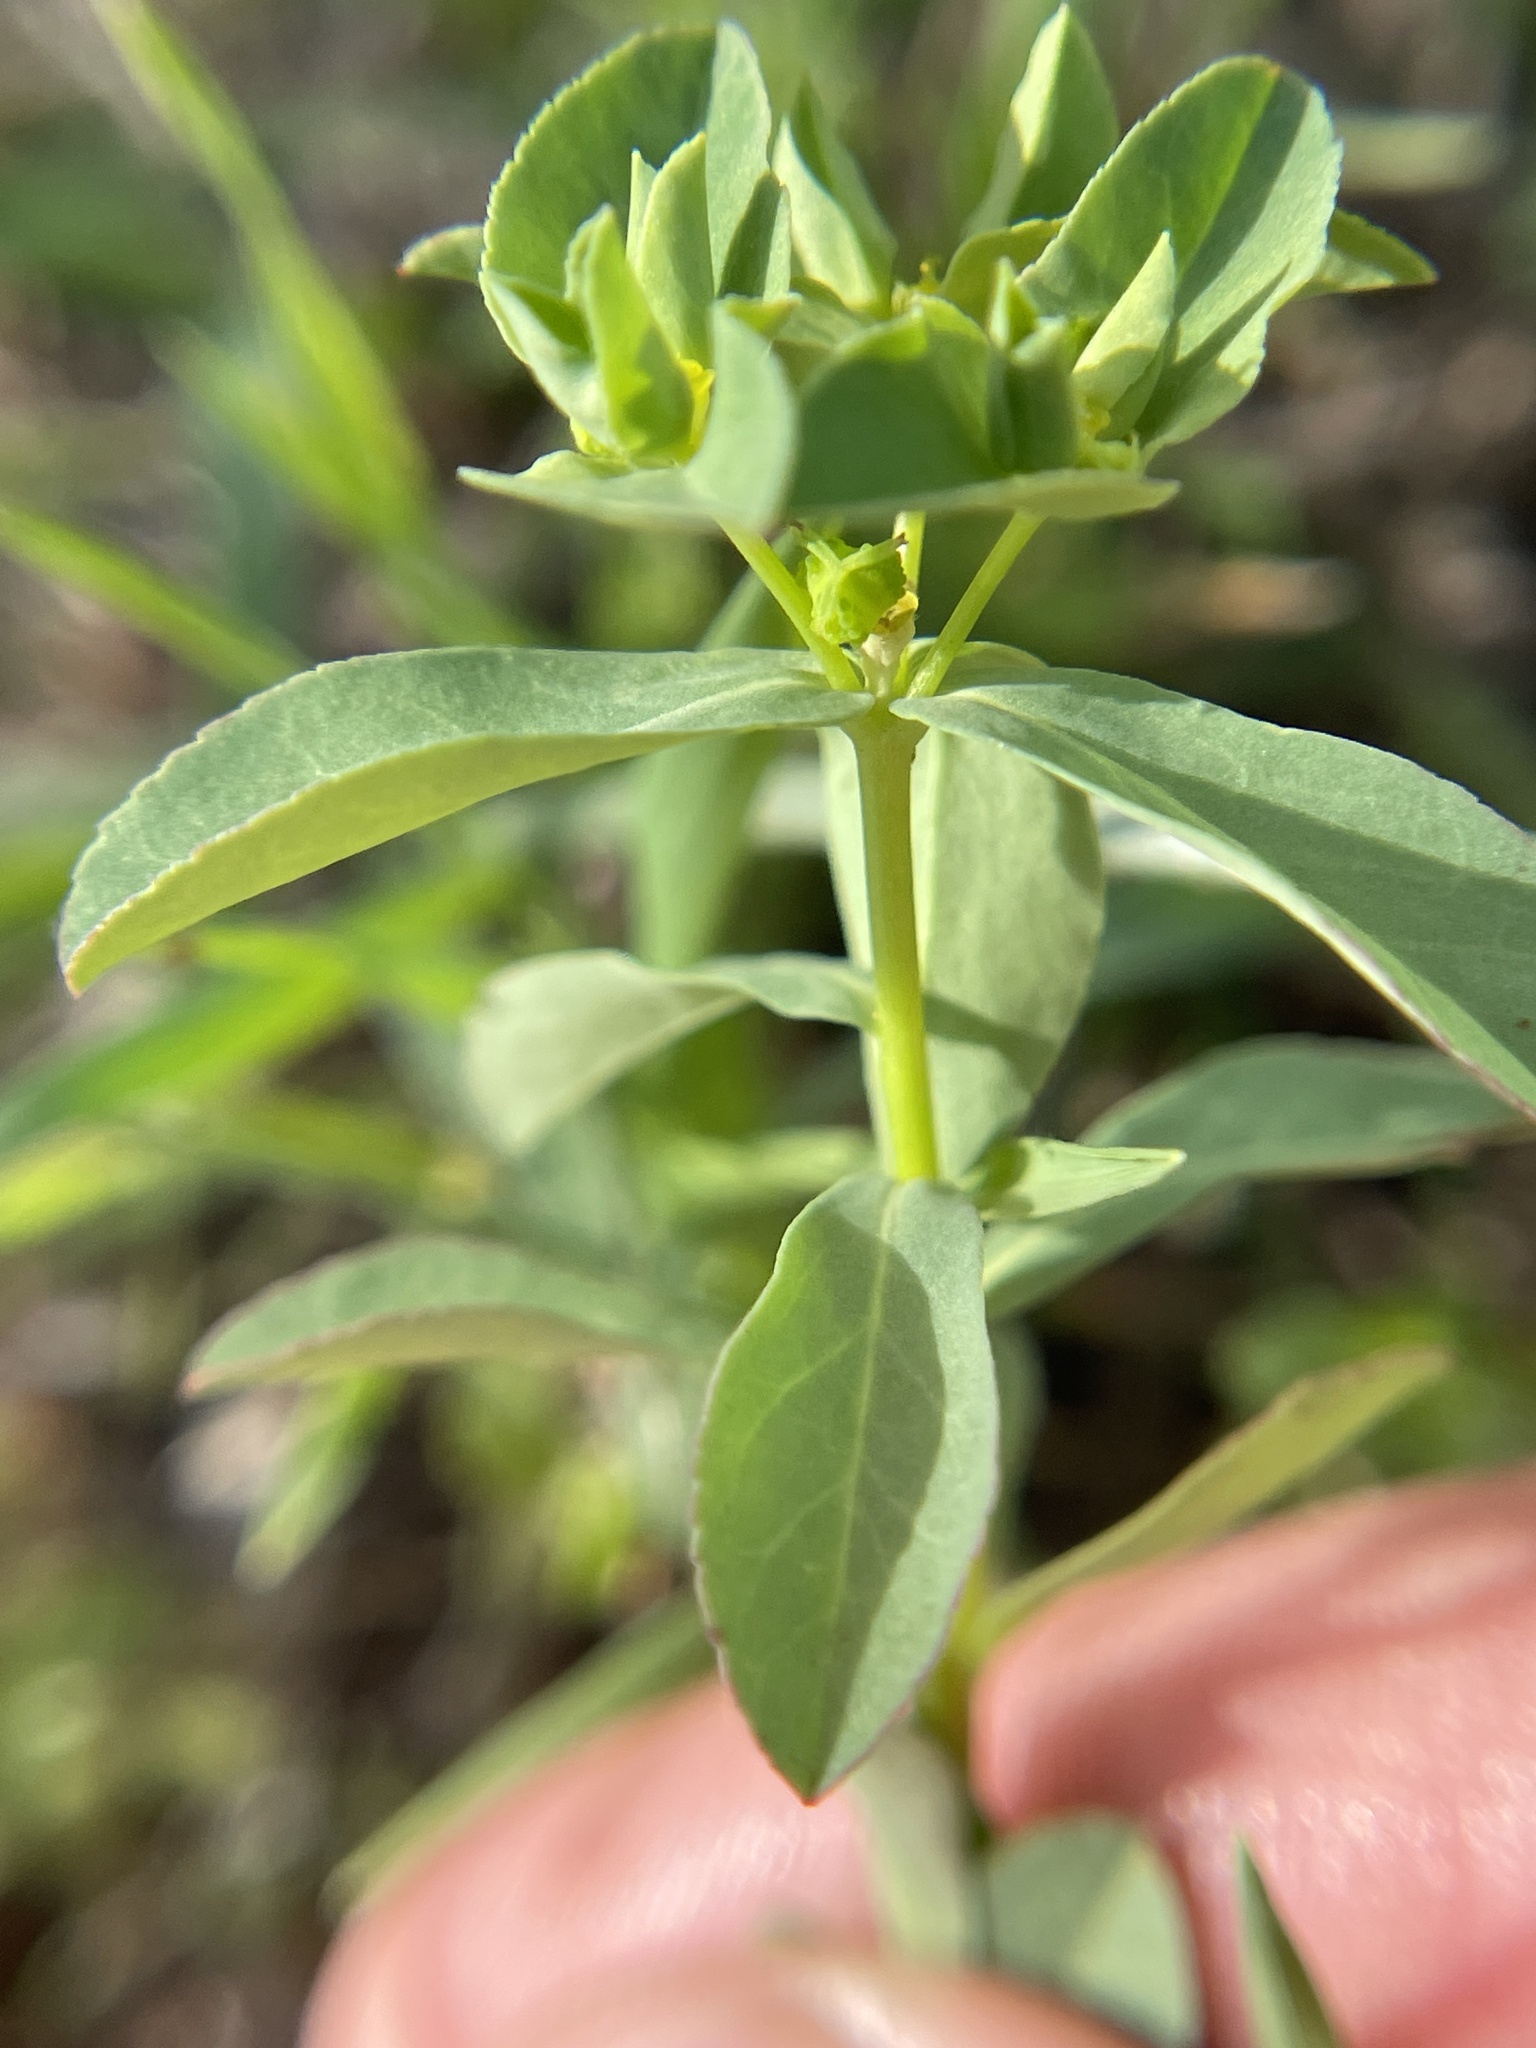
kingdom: Plantae
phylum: Tracheophyta
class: Magnoliopsida
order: Malpighiales
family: Euphorbiaceae
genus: Euphorbia
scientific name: Euphorbia spathulata
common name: Blunt spurge
